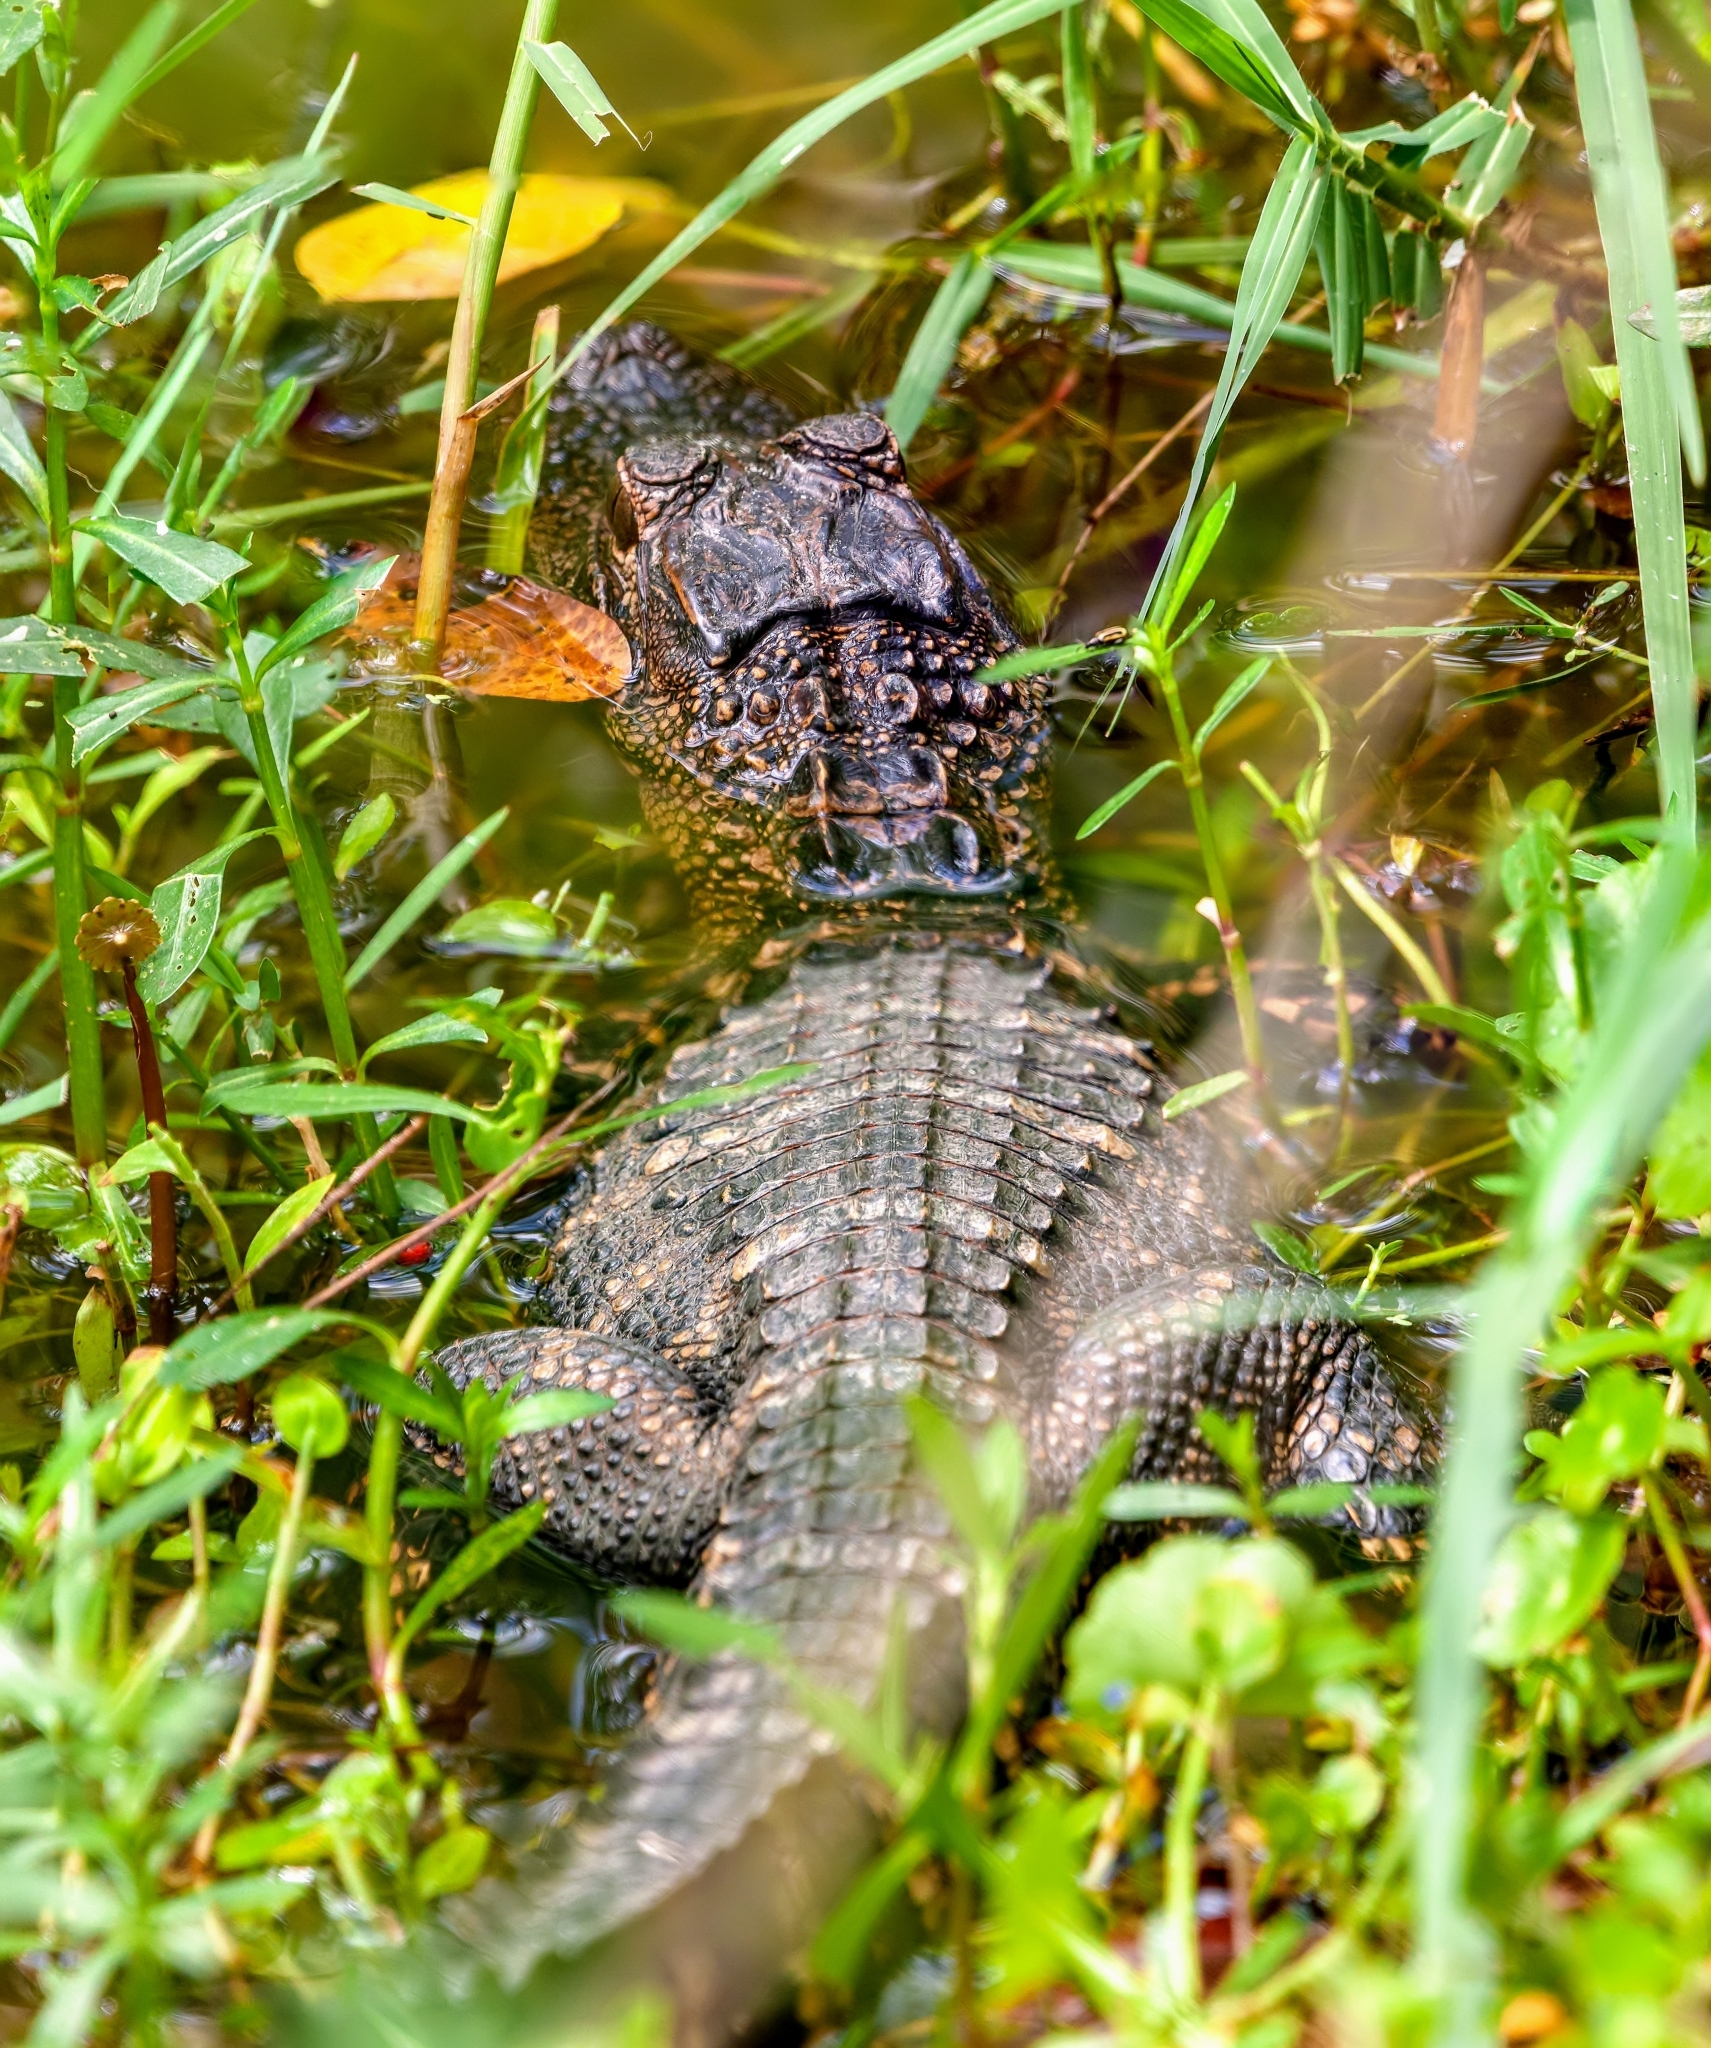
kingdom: Animalia
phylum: Chordata
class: Crocodylia
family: Alligatoridae
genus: Alligator
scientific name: Alligator mississippiensis
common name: American alligator
